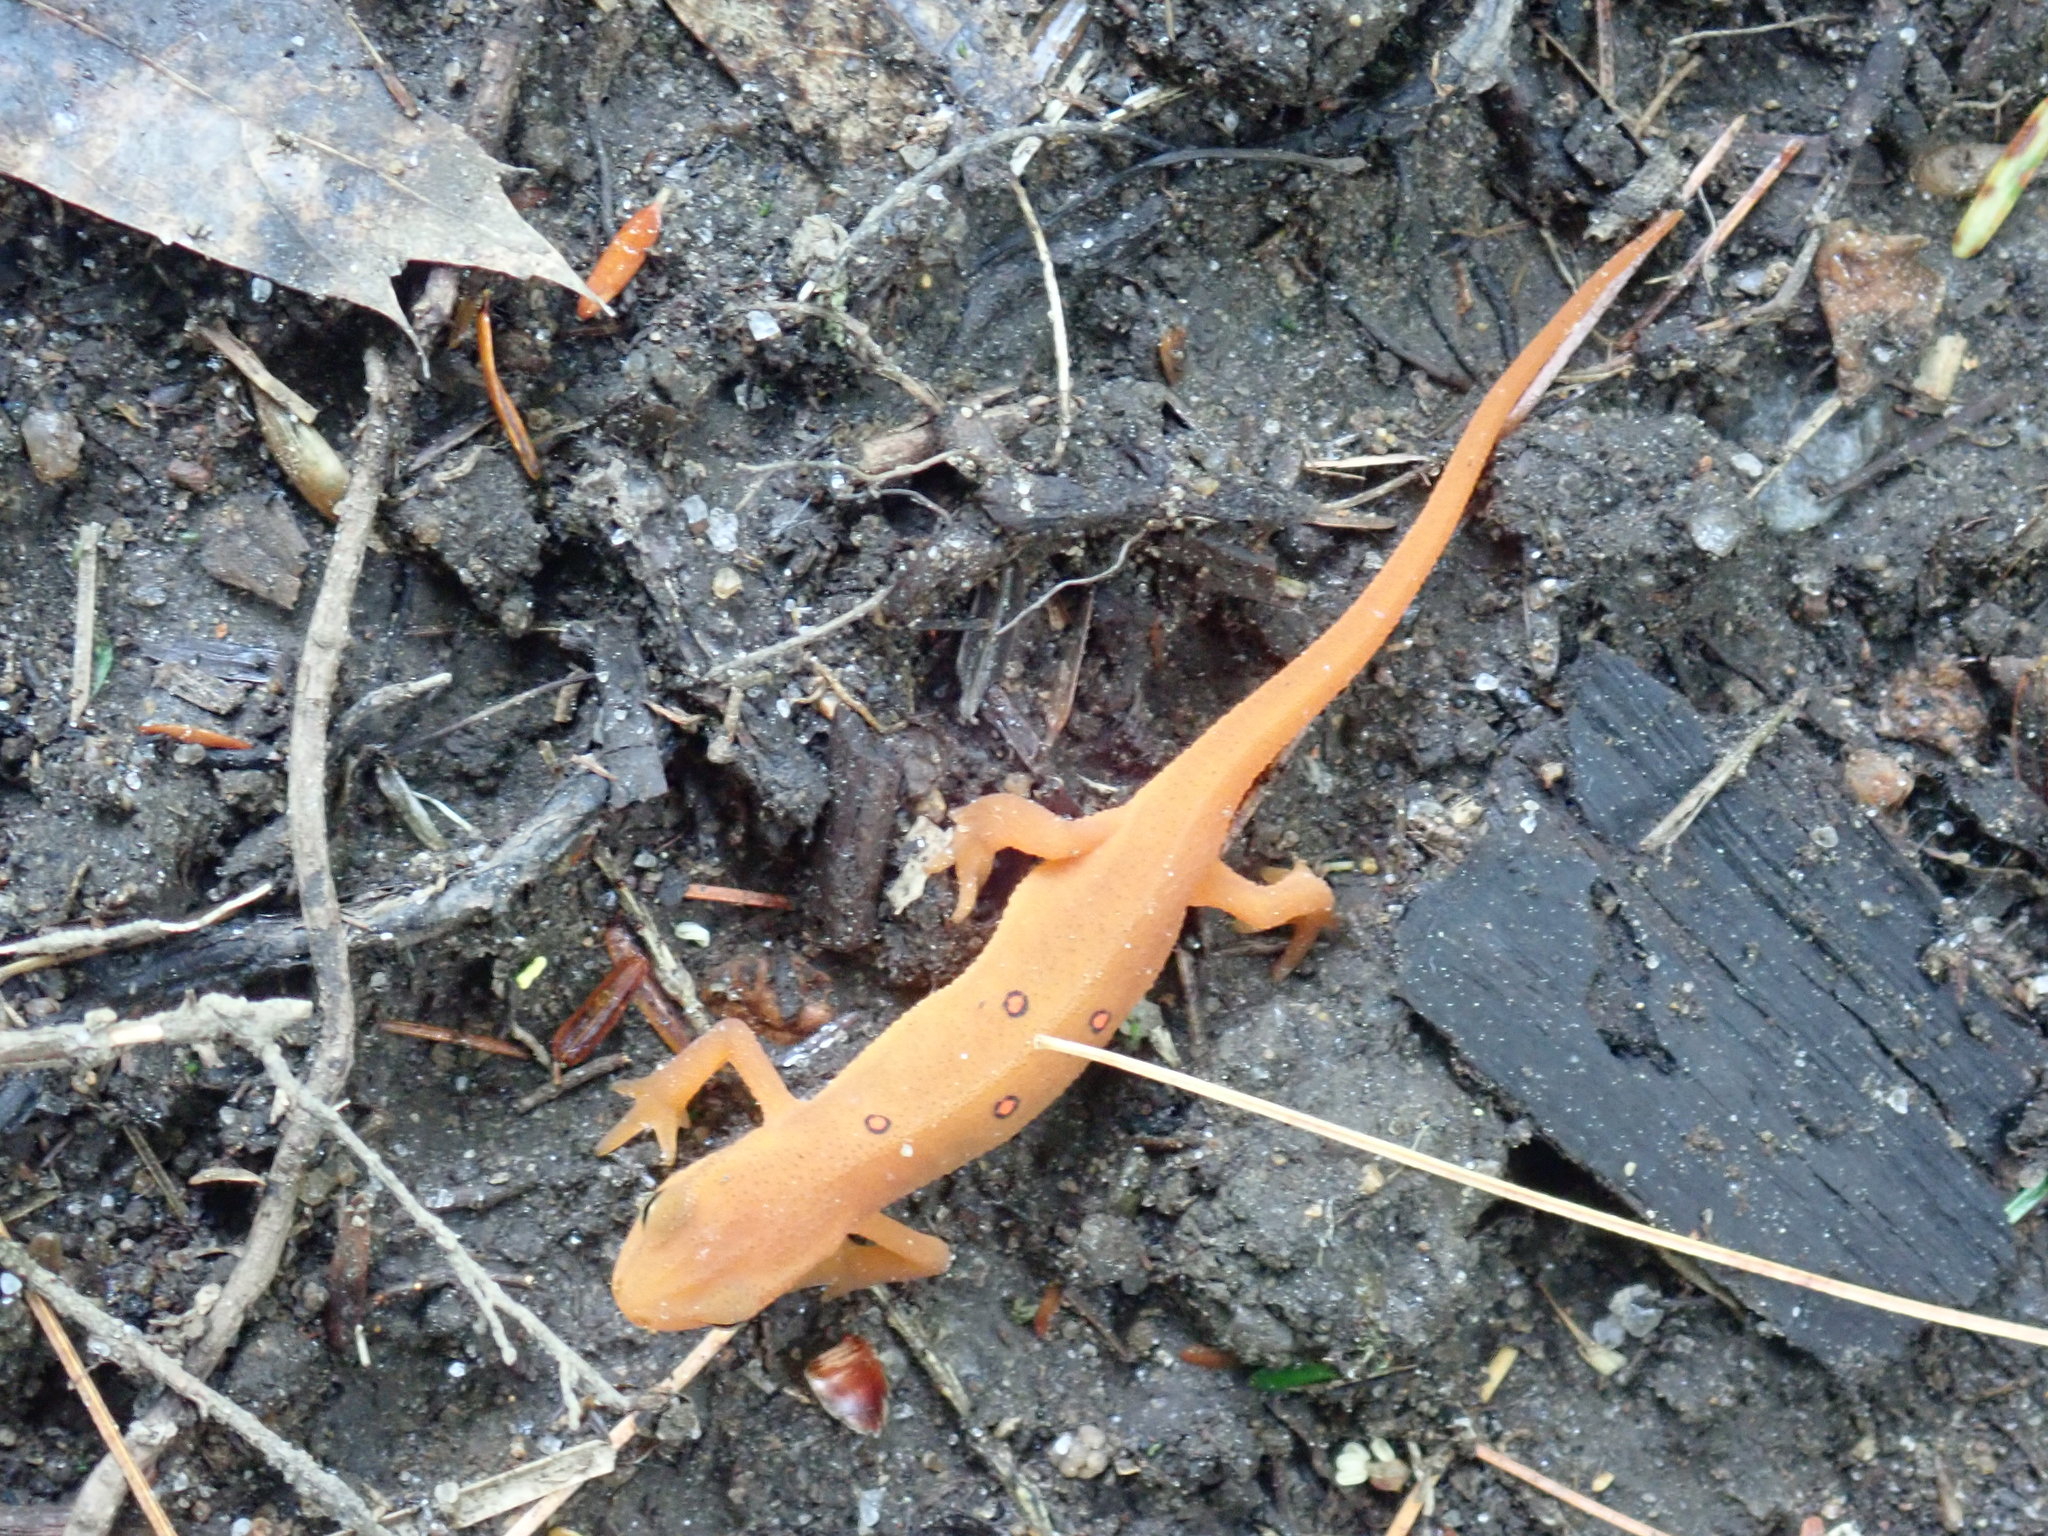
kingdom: Animalia
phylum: Chordata
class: Amphibia
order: Caudata
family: Salamandridae
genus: Notophthalmus
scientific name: Notophthalmus viridescens
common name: Eastern newt
